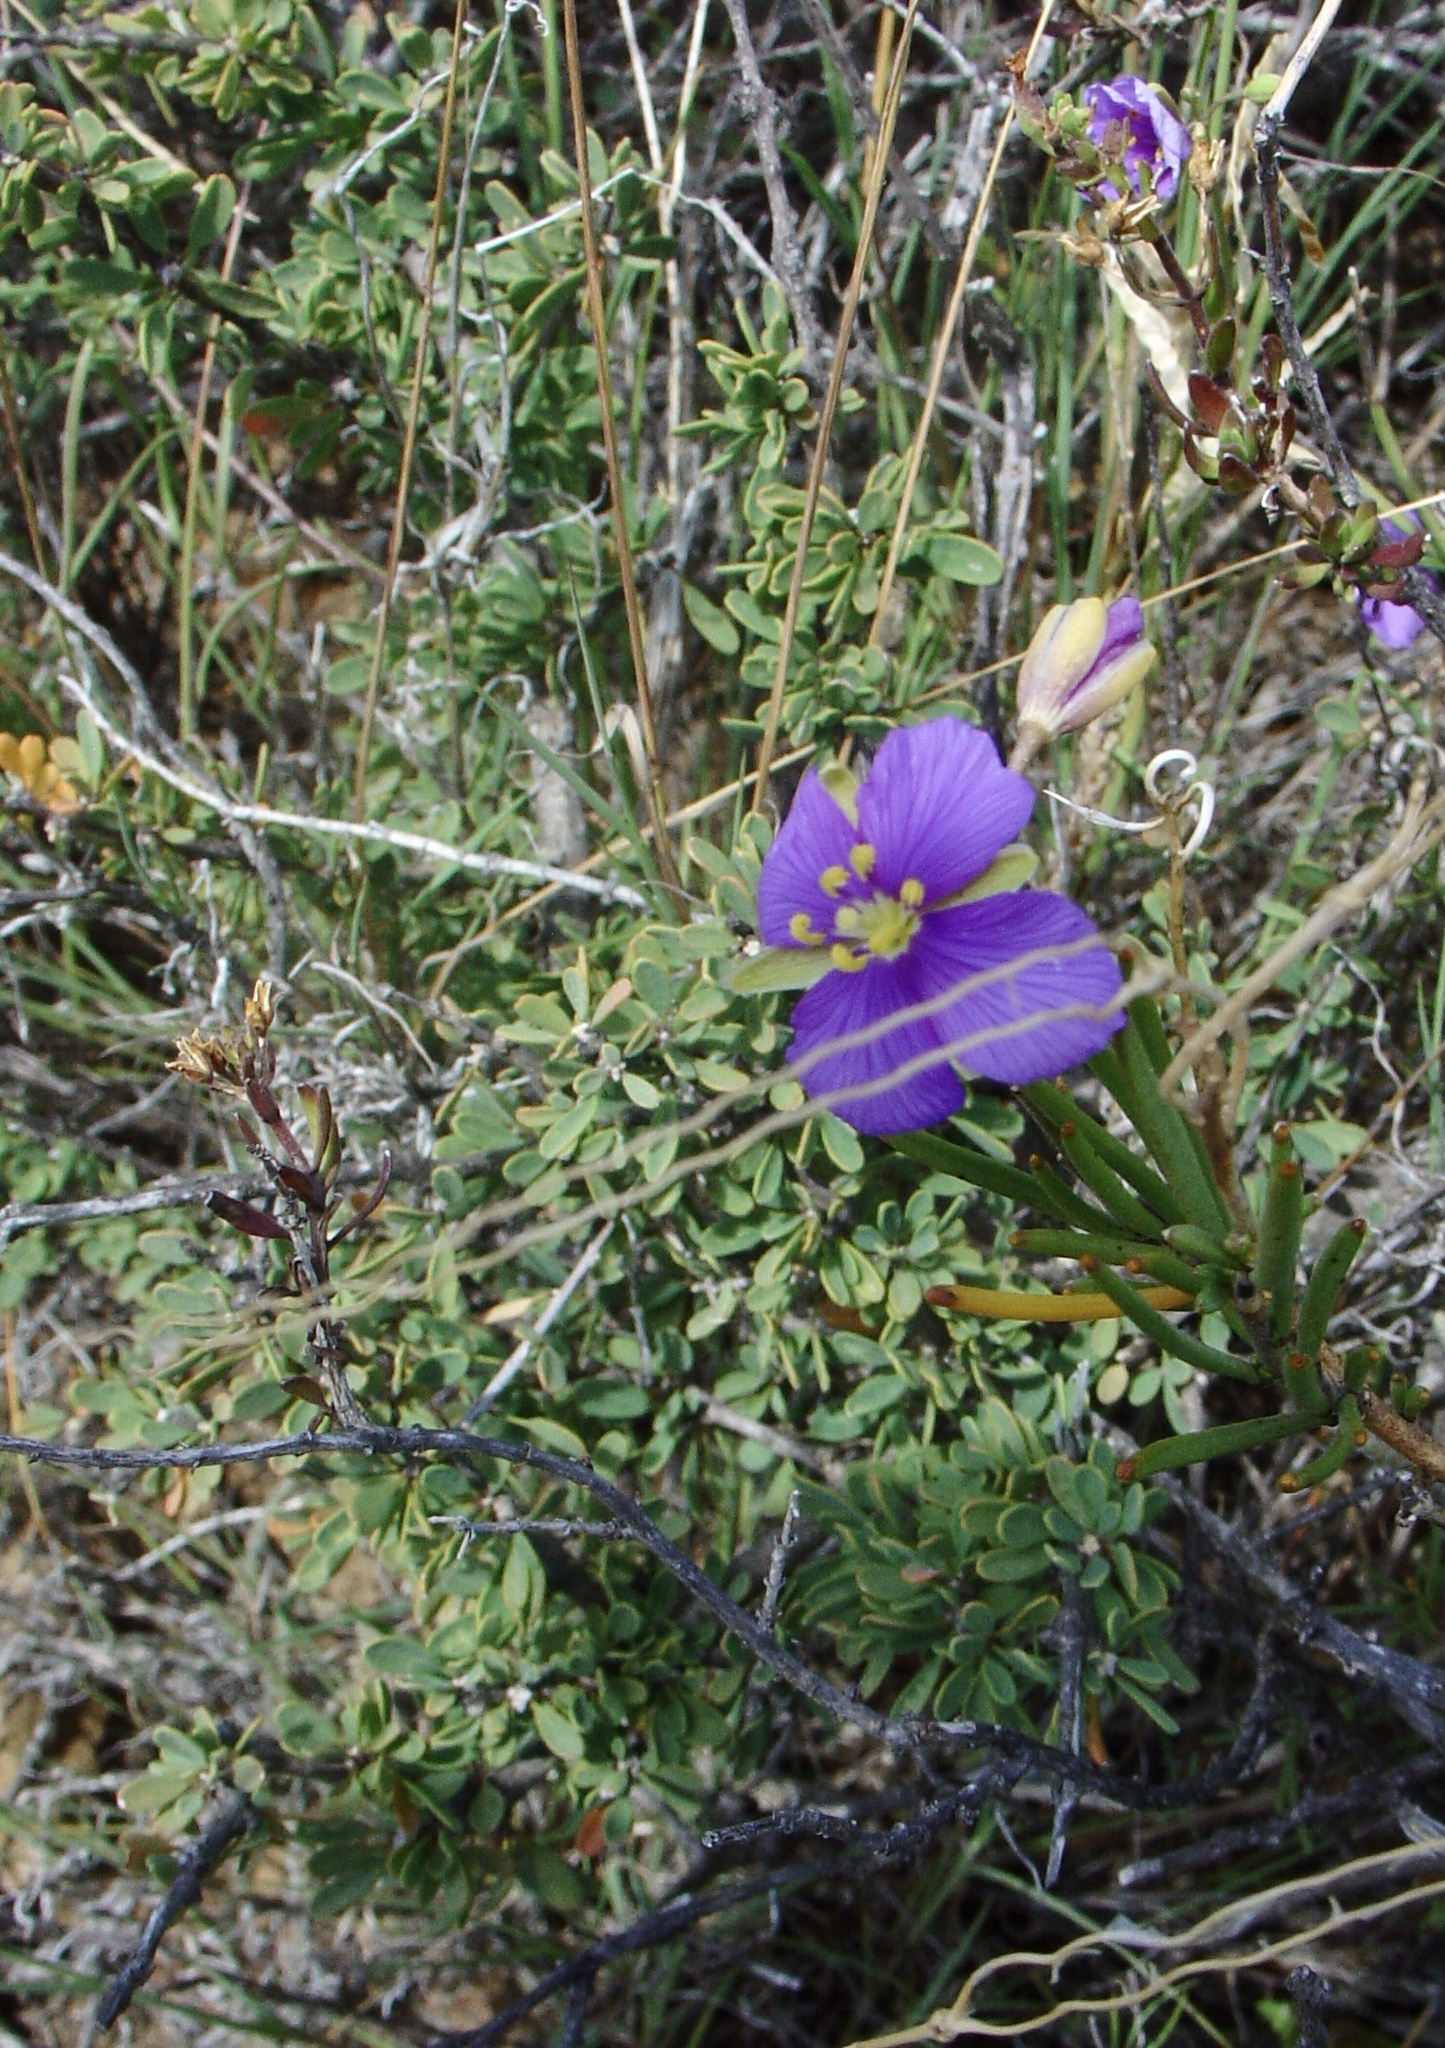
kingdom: Plantae
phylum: Tracheophyta
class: Magnoliopsida
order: Brassicales
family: Brassicaceae
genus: Heliophila
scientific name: Heliophila suavissima
